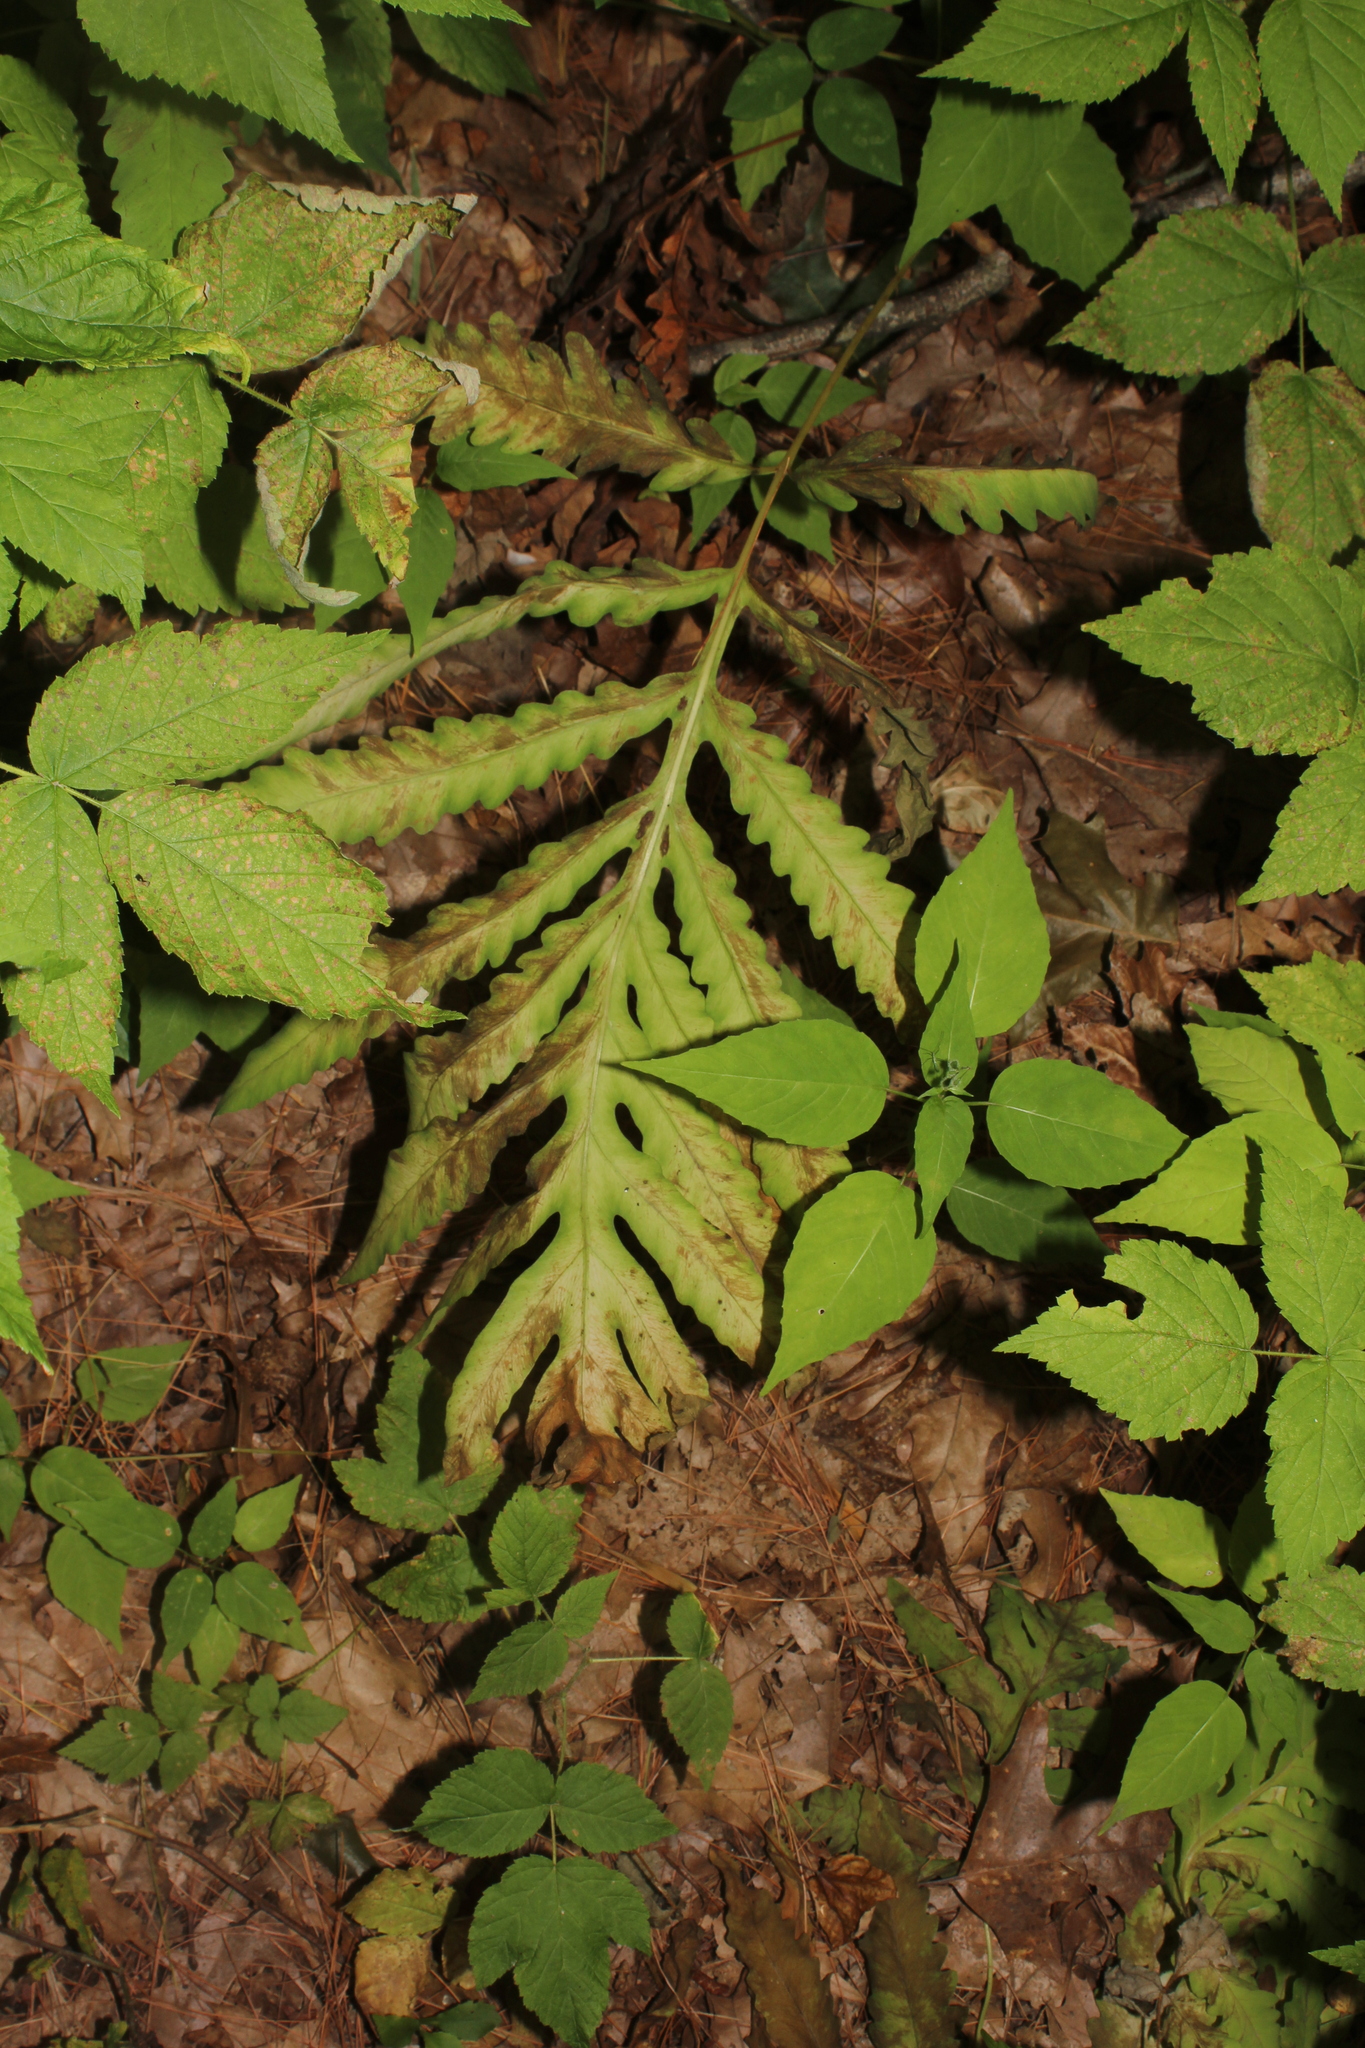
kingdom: Plantae
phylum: Tracheophyta
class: Polypodiopsida
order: Polypodiales
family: Onocleaceae
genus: Onoclea
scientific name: Onoclea sensibilis
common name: Sensitive fern
